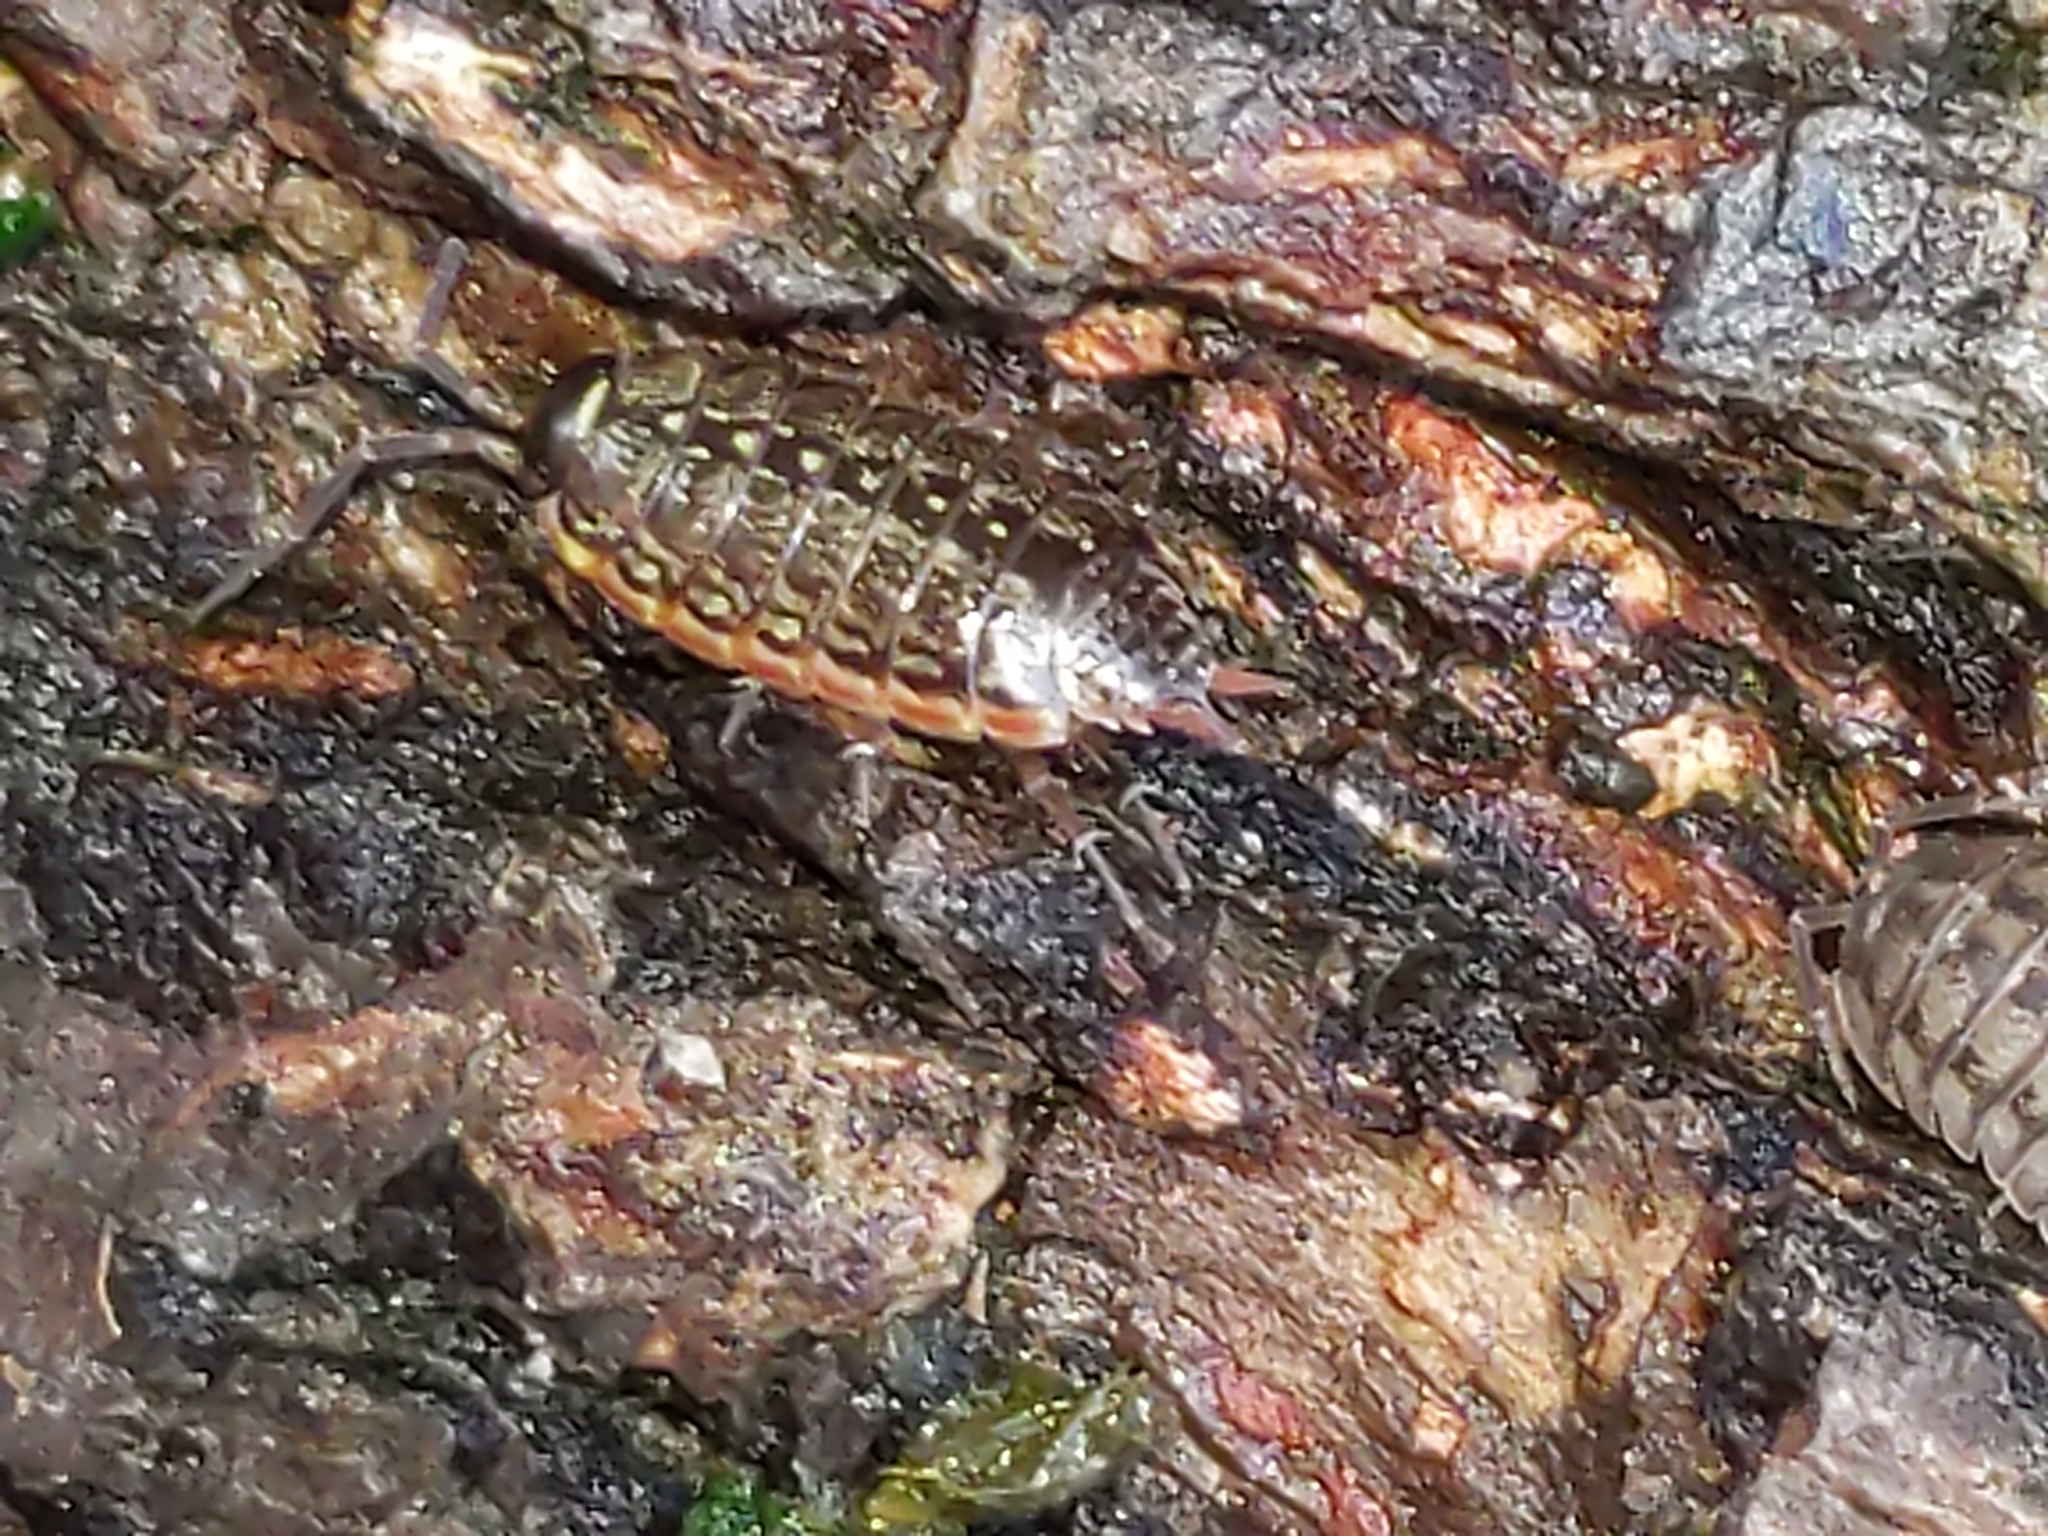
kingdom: Animalia
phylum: Arthropoda
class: Malacostraca
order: Isopoda
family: Philosciidae
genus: Philoscia
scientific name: Philoscia muscorum
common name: Common striped woodlouse
